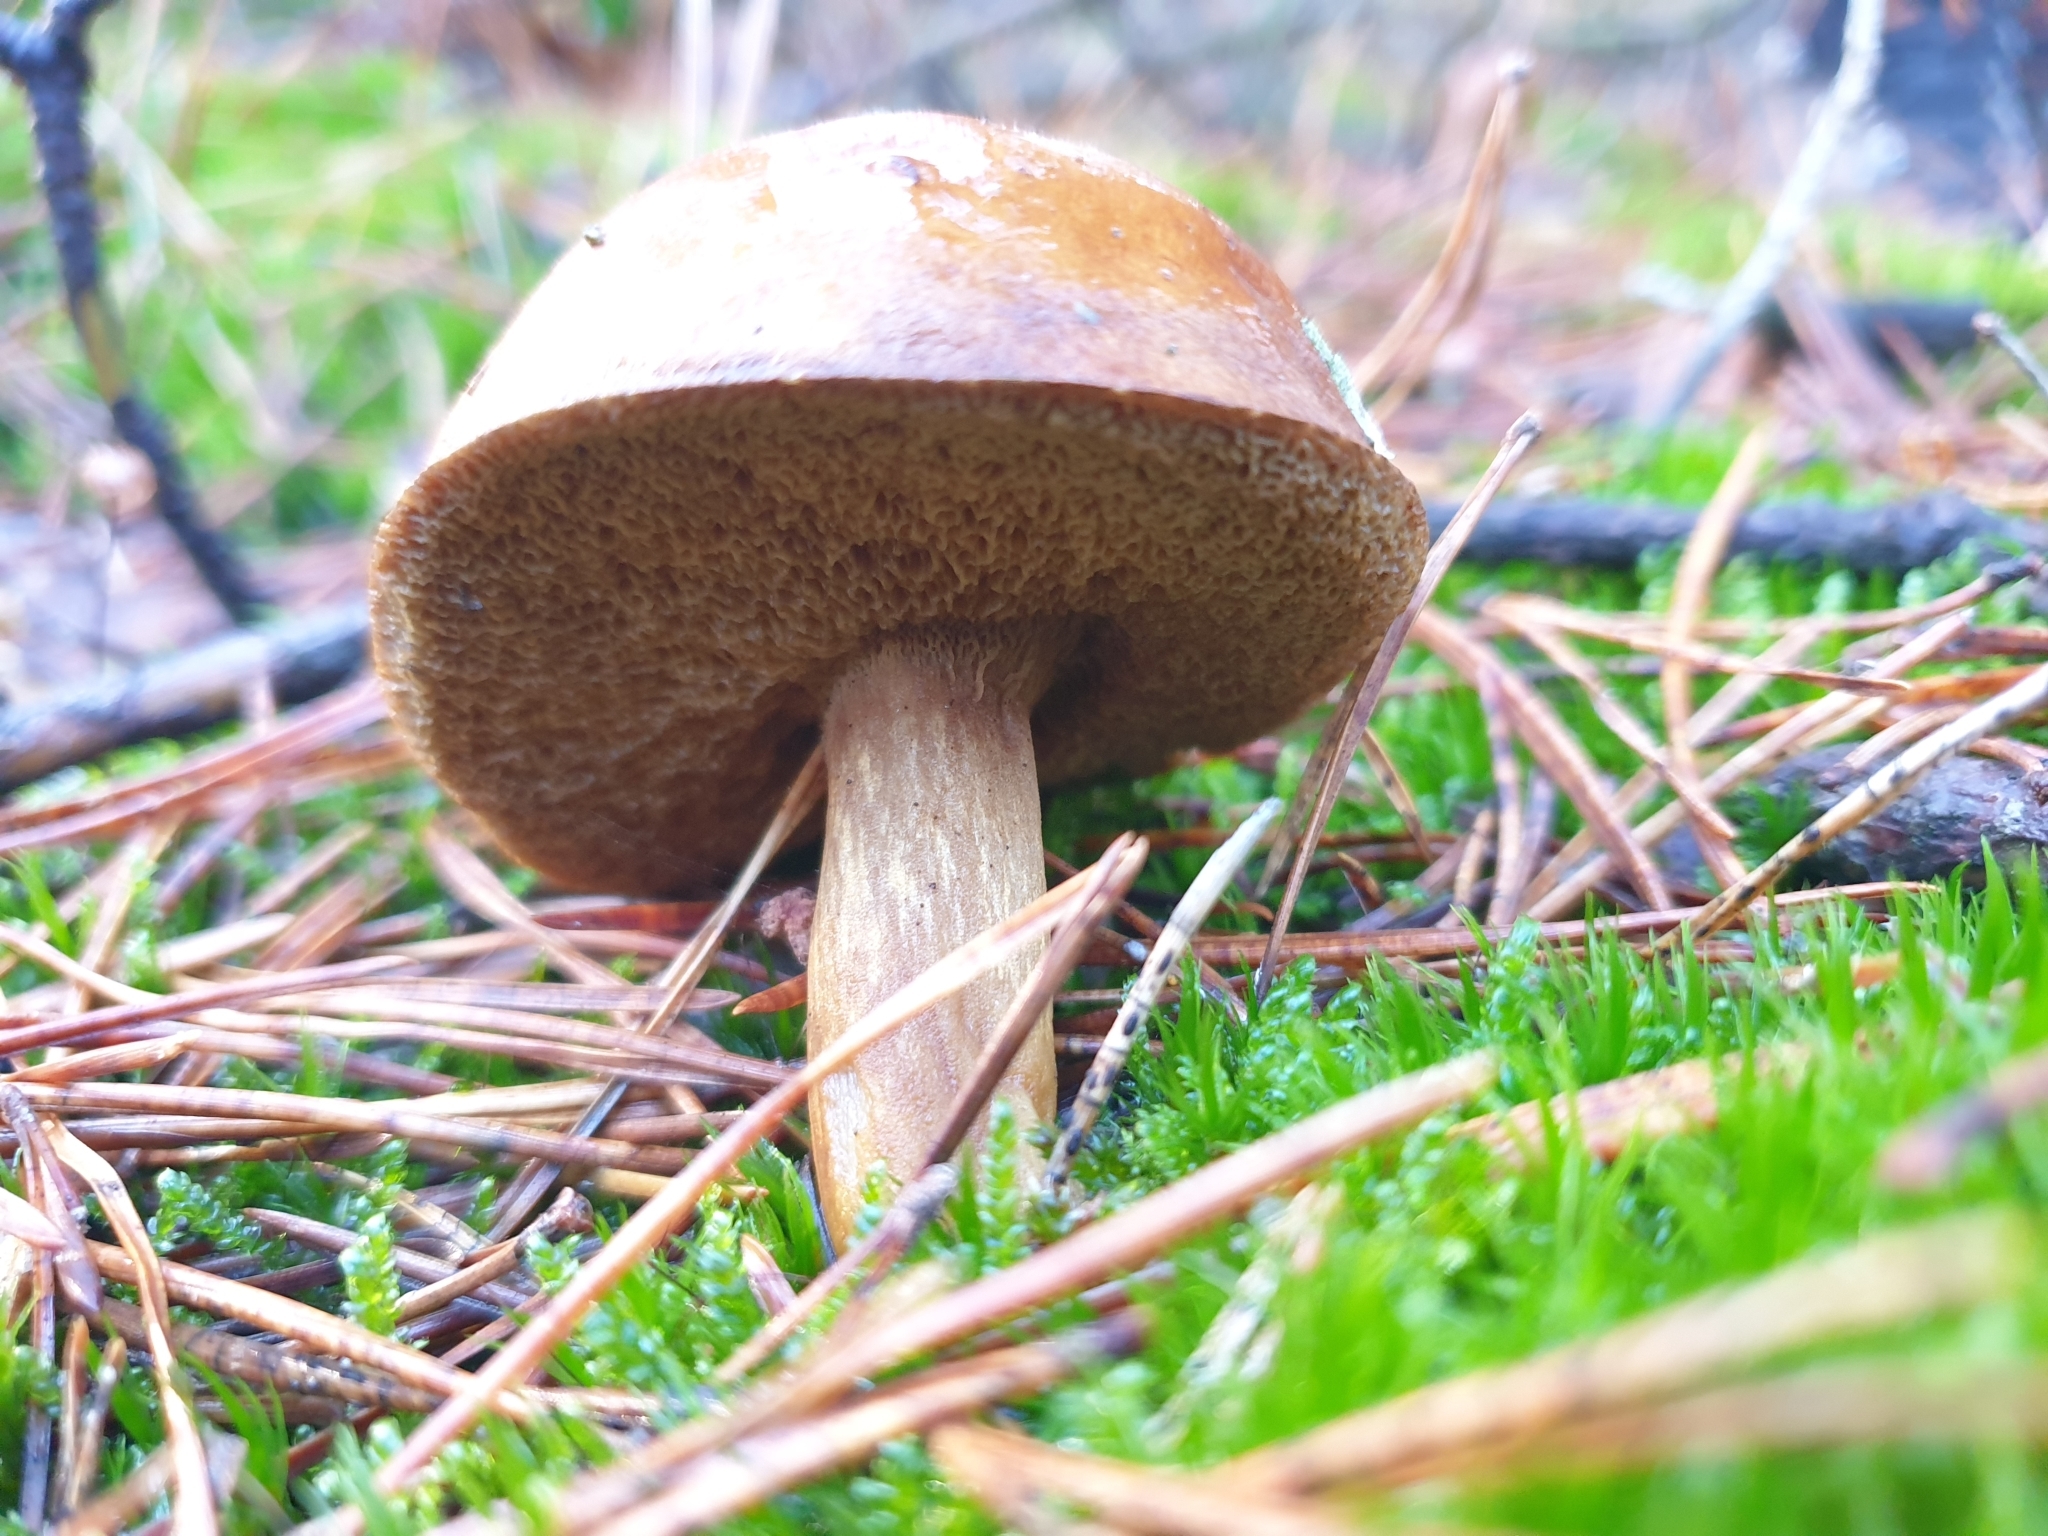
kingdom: Fungi
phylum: Basidiomycota
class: Agaricomycetes
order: Boletales
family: Boletaceae
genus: Imleria
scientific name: Imleria badia
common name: Bay bolete
